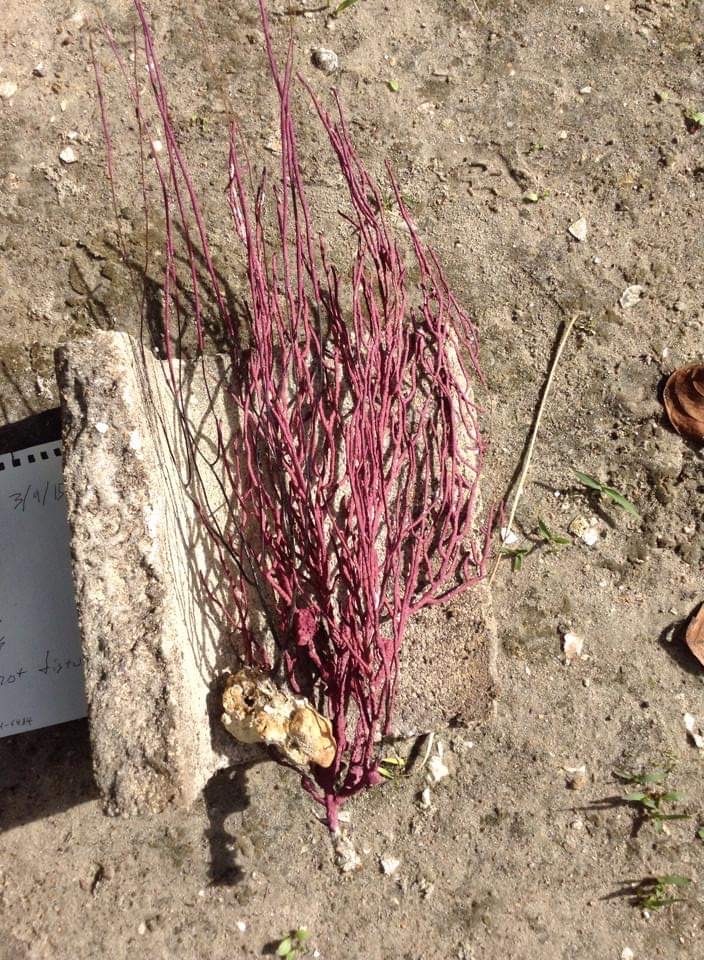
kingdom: Animalia
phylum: Cnidaria
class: Anthozoa
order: Malacalcyonacea
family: Gorgoniidae
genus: Leptogorgia
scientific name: Leptogorgia virgulata
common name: Colorful sea whip
